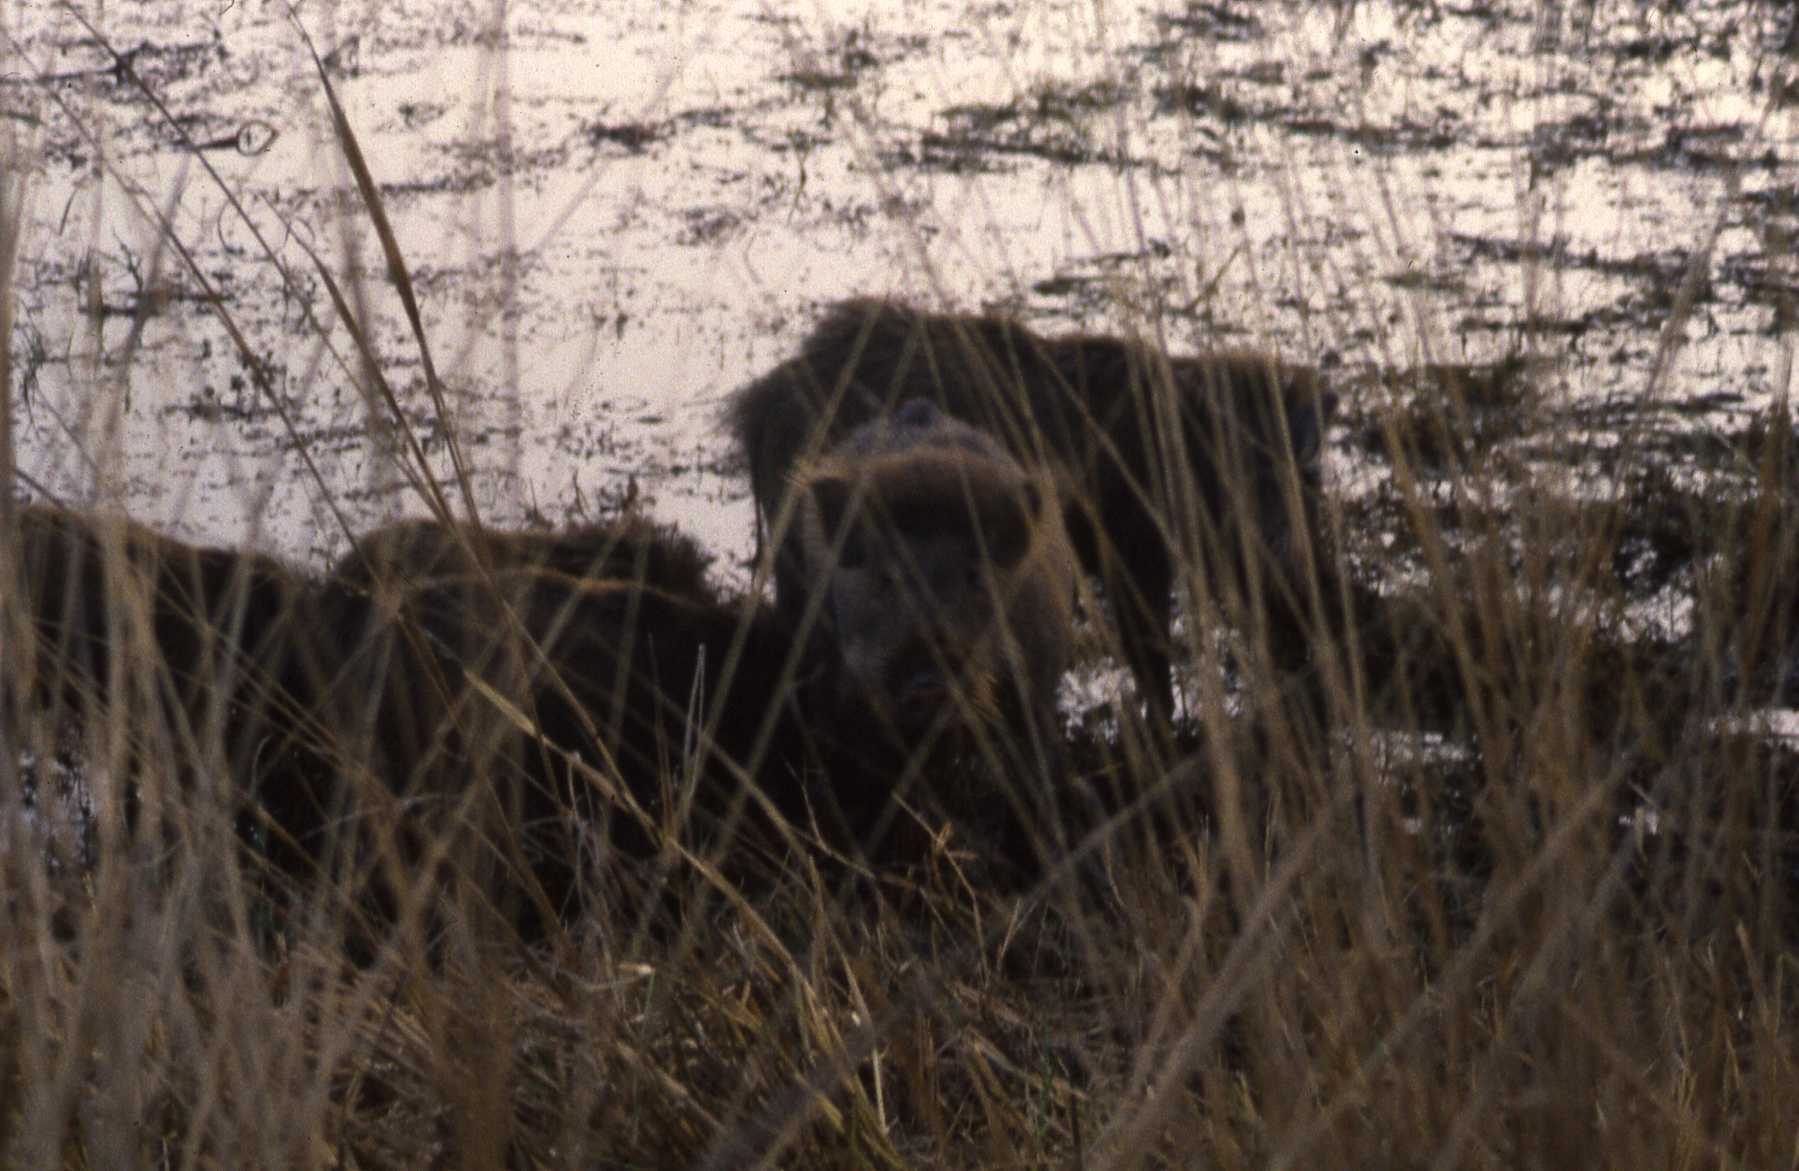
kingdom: Animalia
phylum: Chordata
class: Mammalia
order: Artiodactyla
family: Suidae
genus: Sus
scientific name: Sus scrofa
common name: Wild boar
